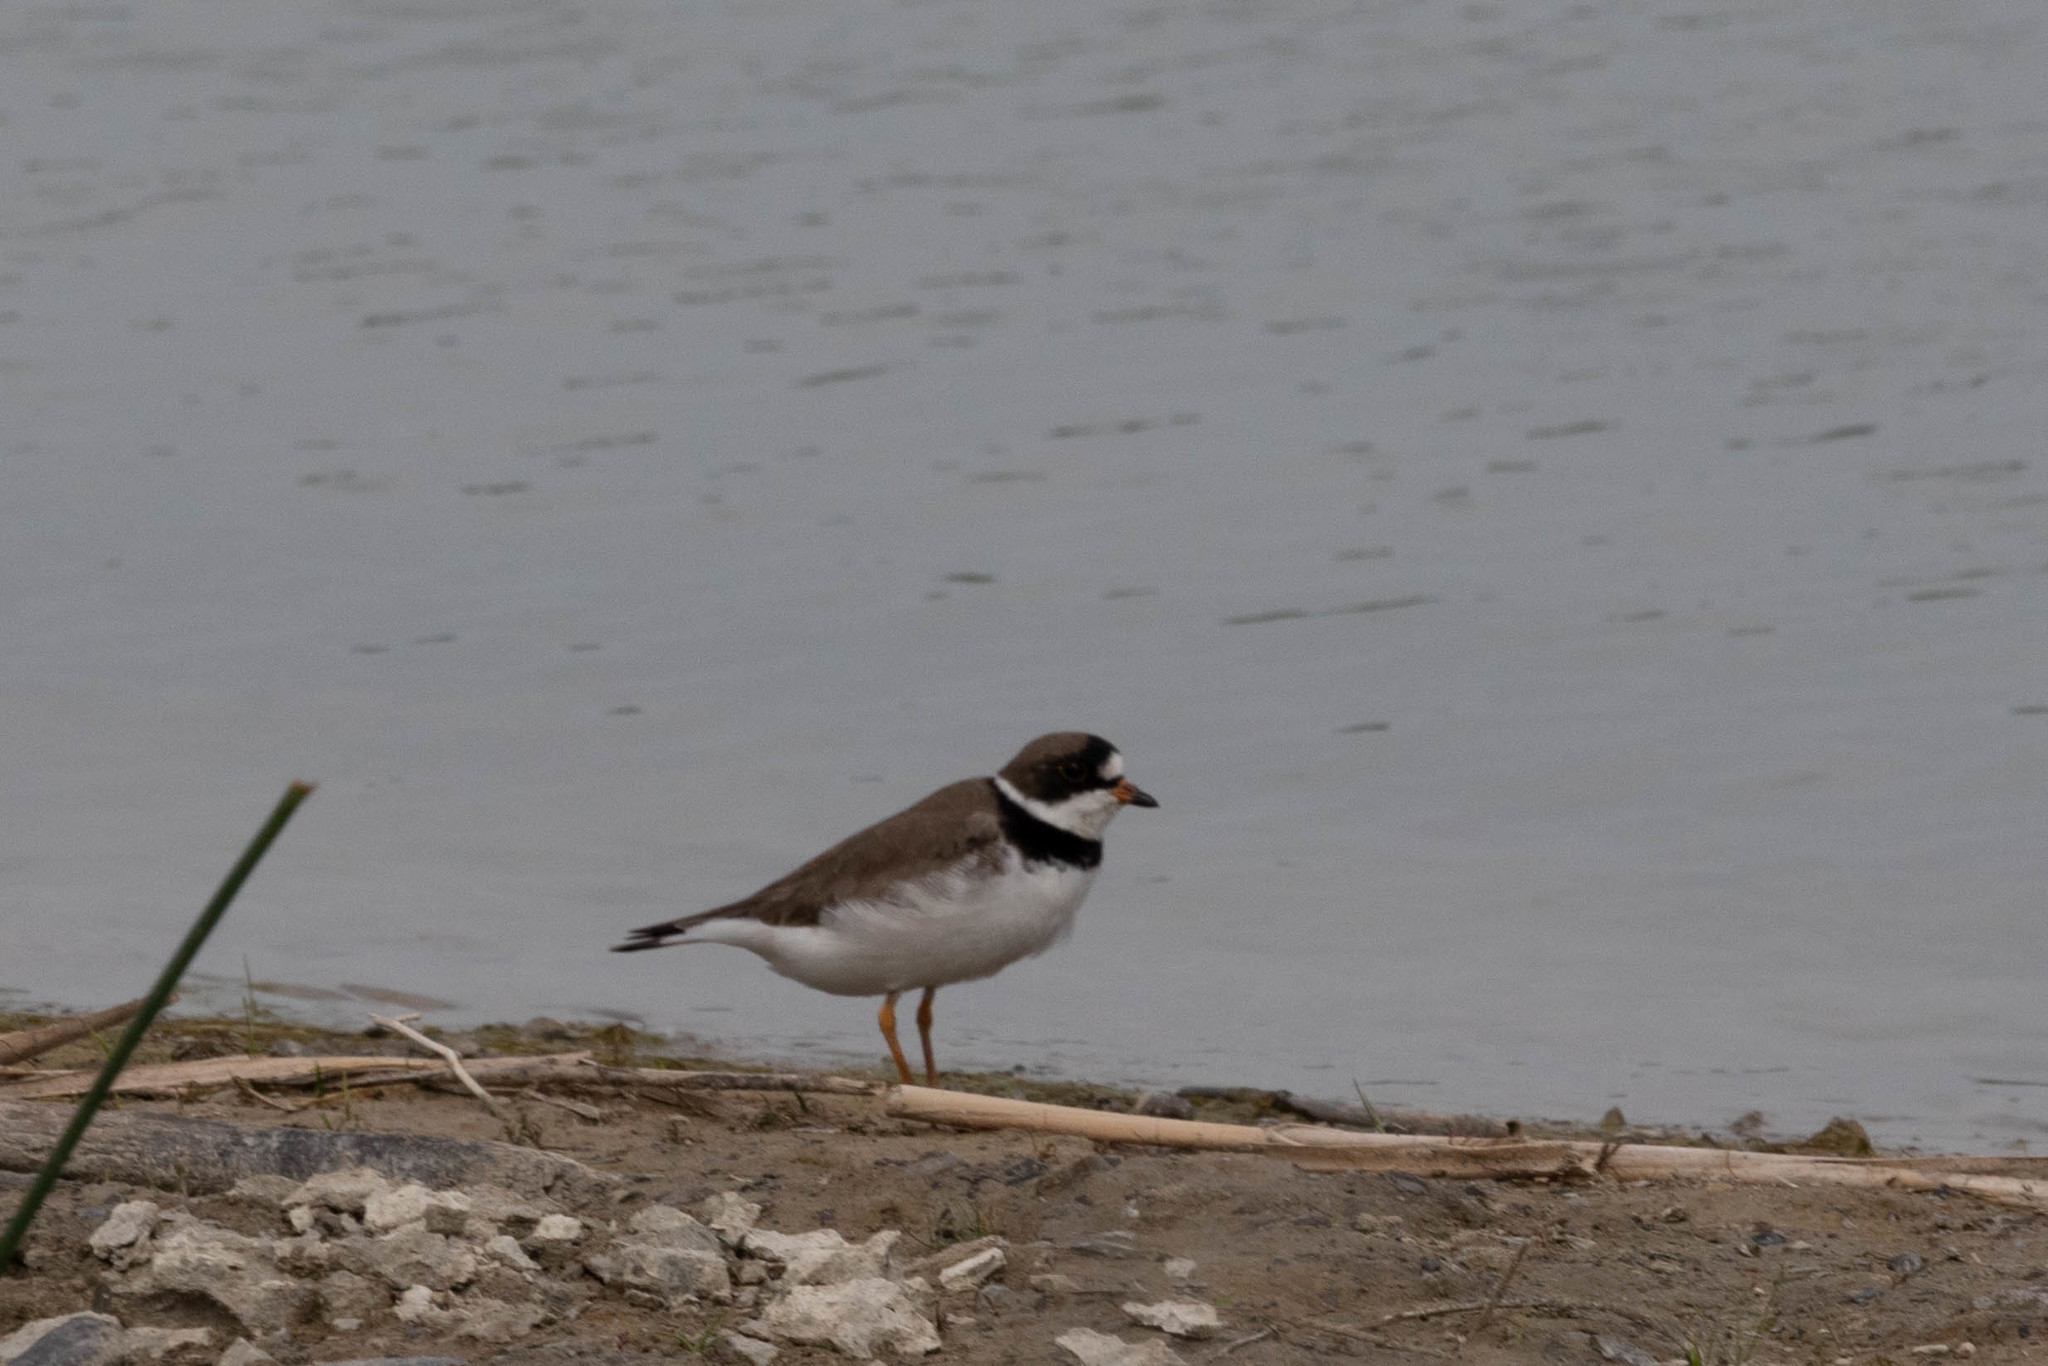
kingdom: Animalia
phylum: Chordata
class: Aves
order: Charadriiformes
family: Charadriidae
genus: Charadrius
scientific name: Charadrius semipalmatus
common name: Semipalmated plover
